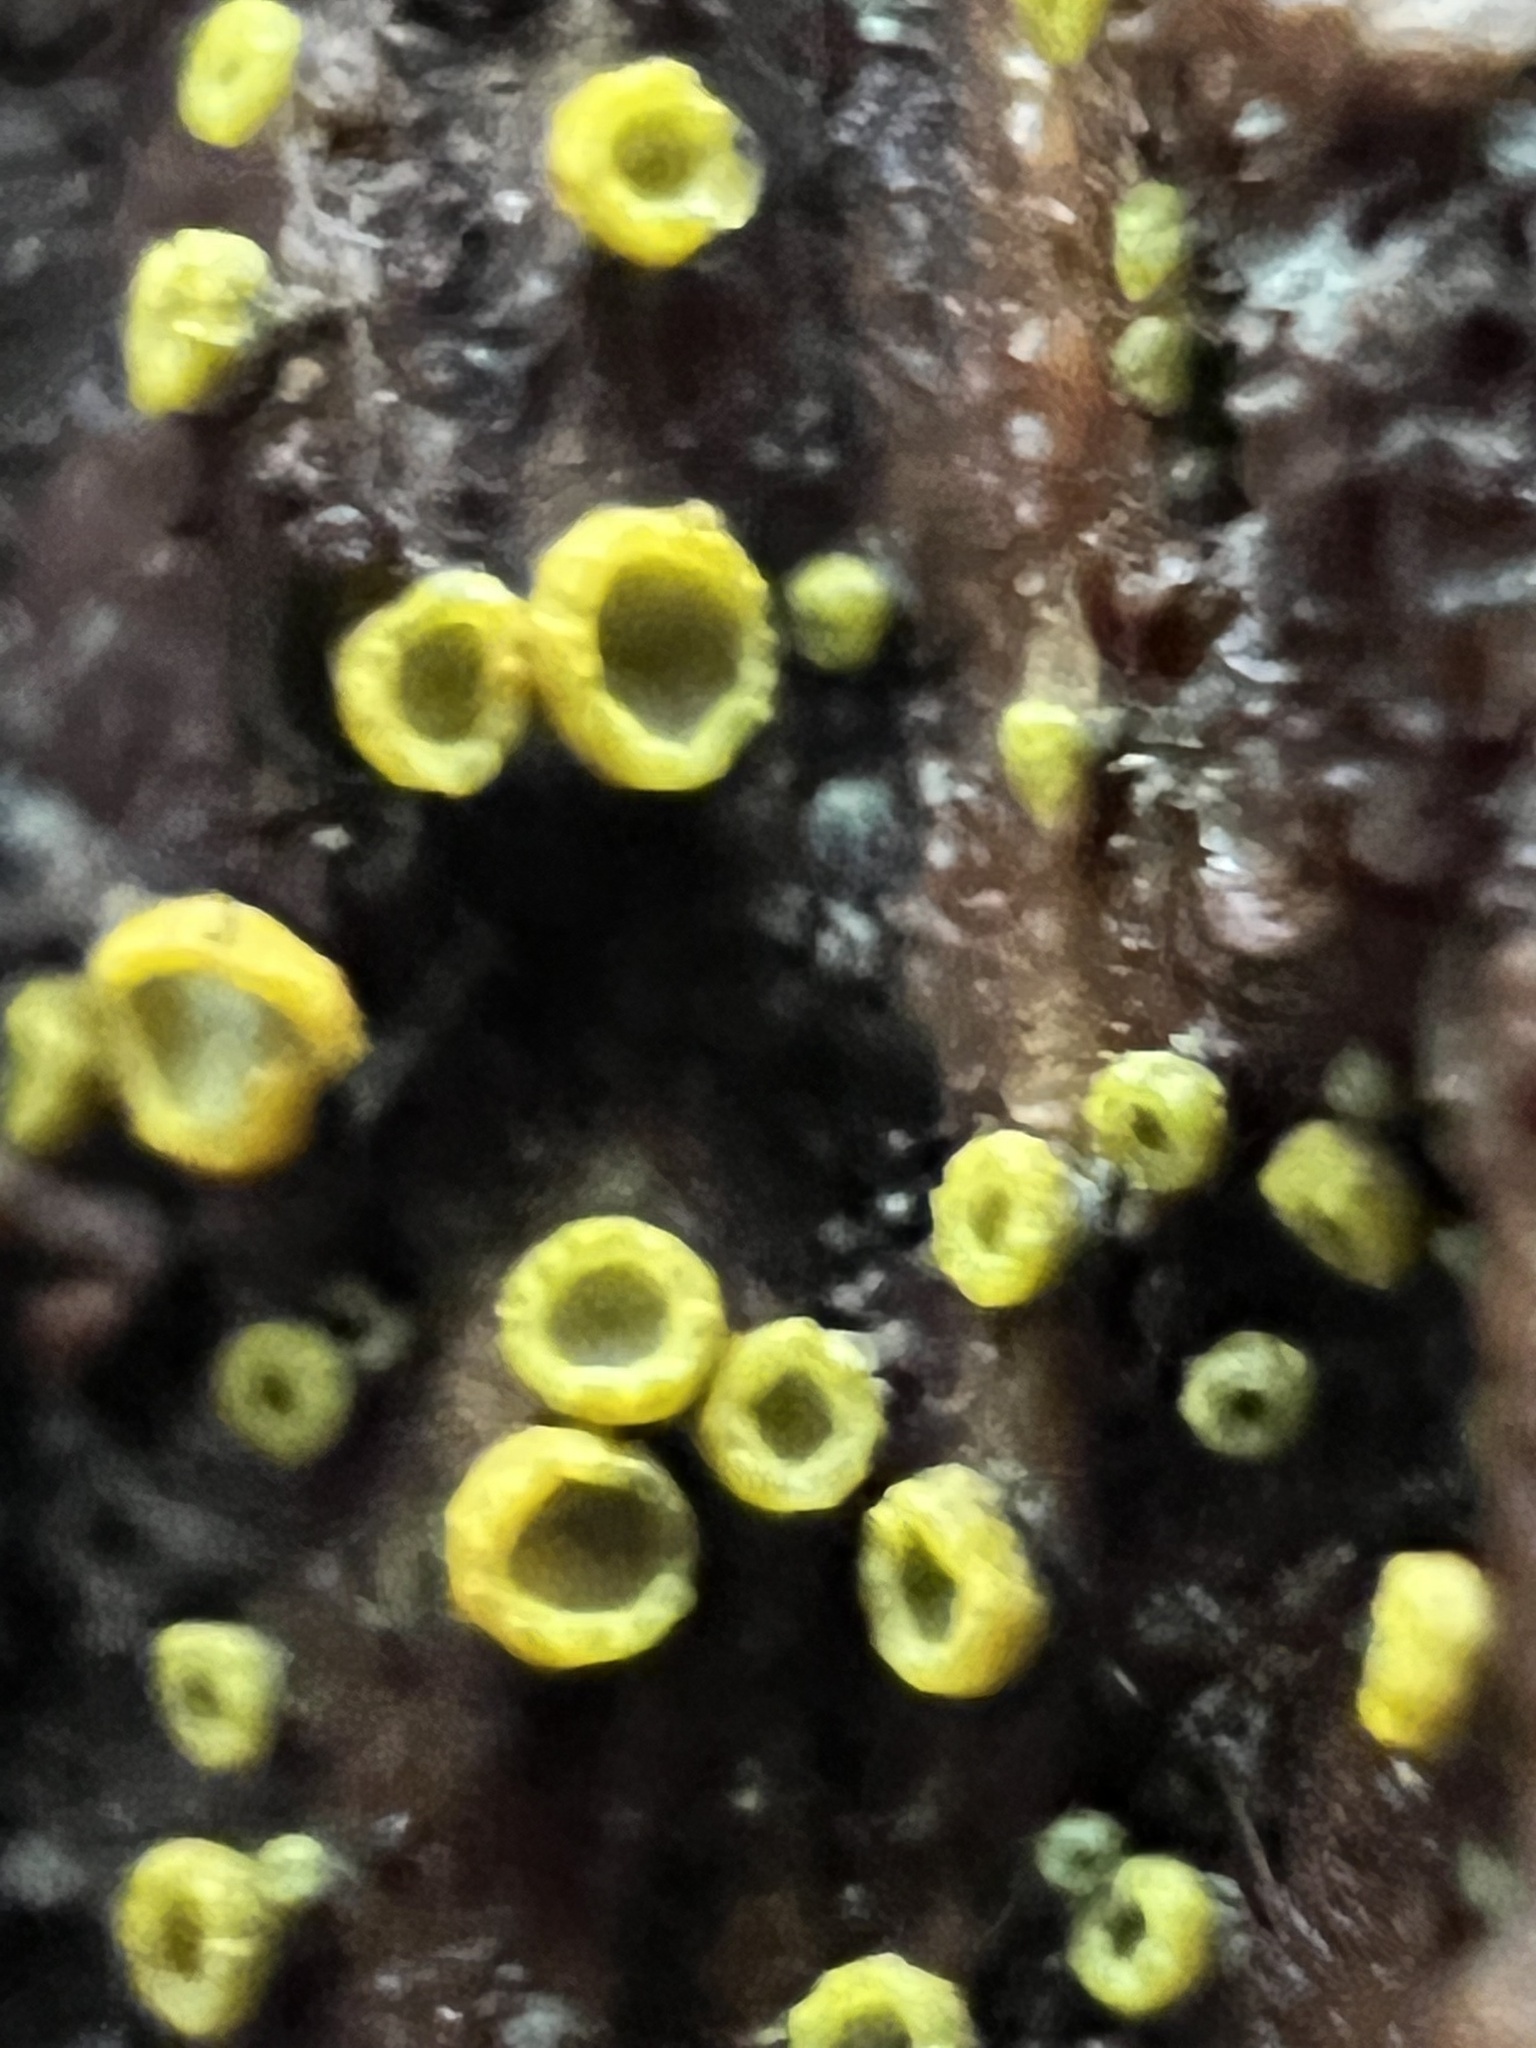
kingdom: Fungi
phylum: Ascomycota
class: Leotiomycetes
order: Helotiales
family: Chlorospleniaceae
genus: Chlorosplenium
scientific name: Chlorosplenium chlora
